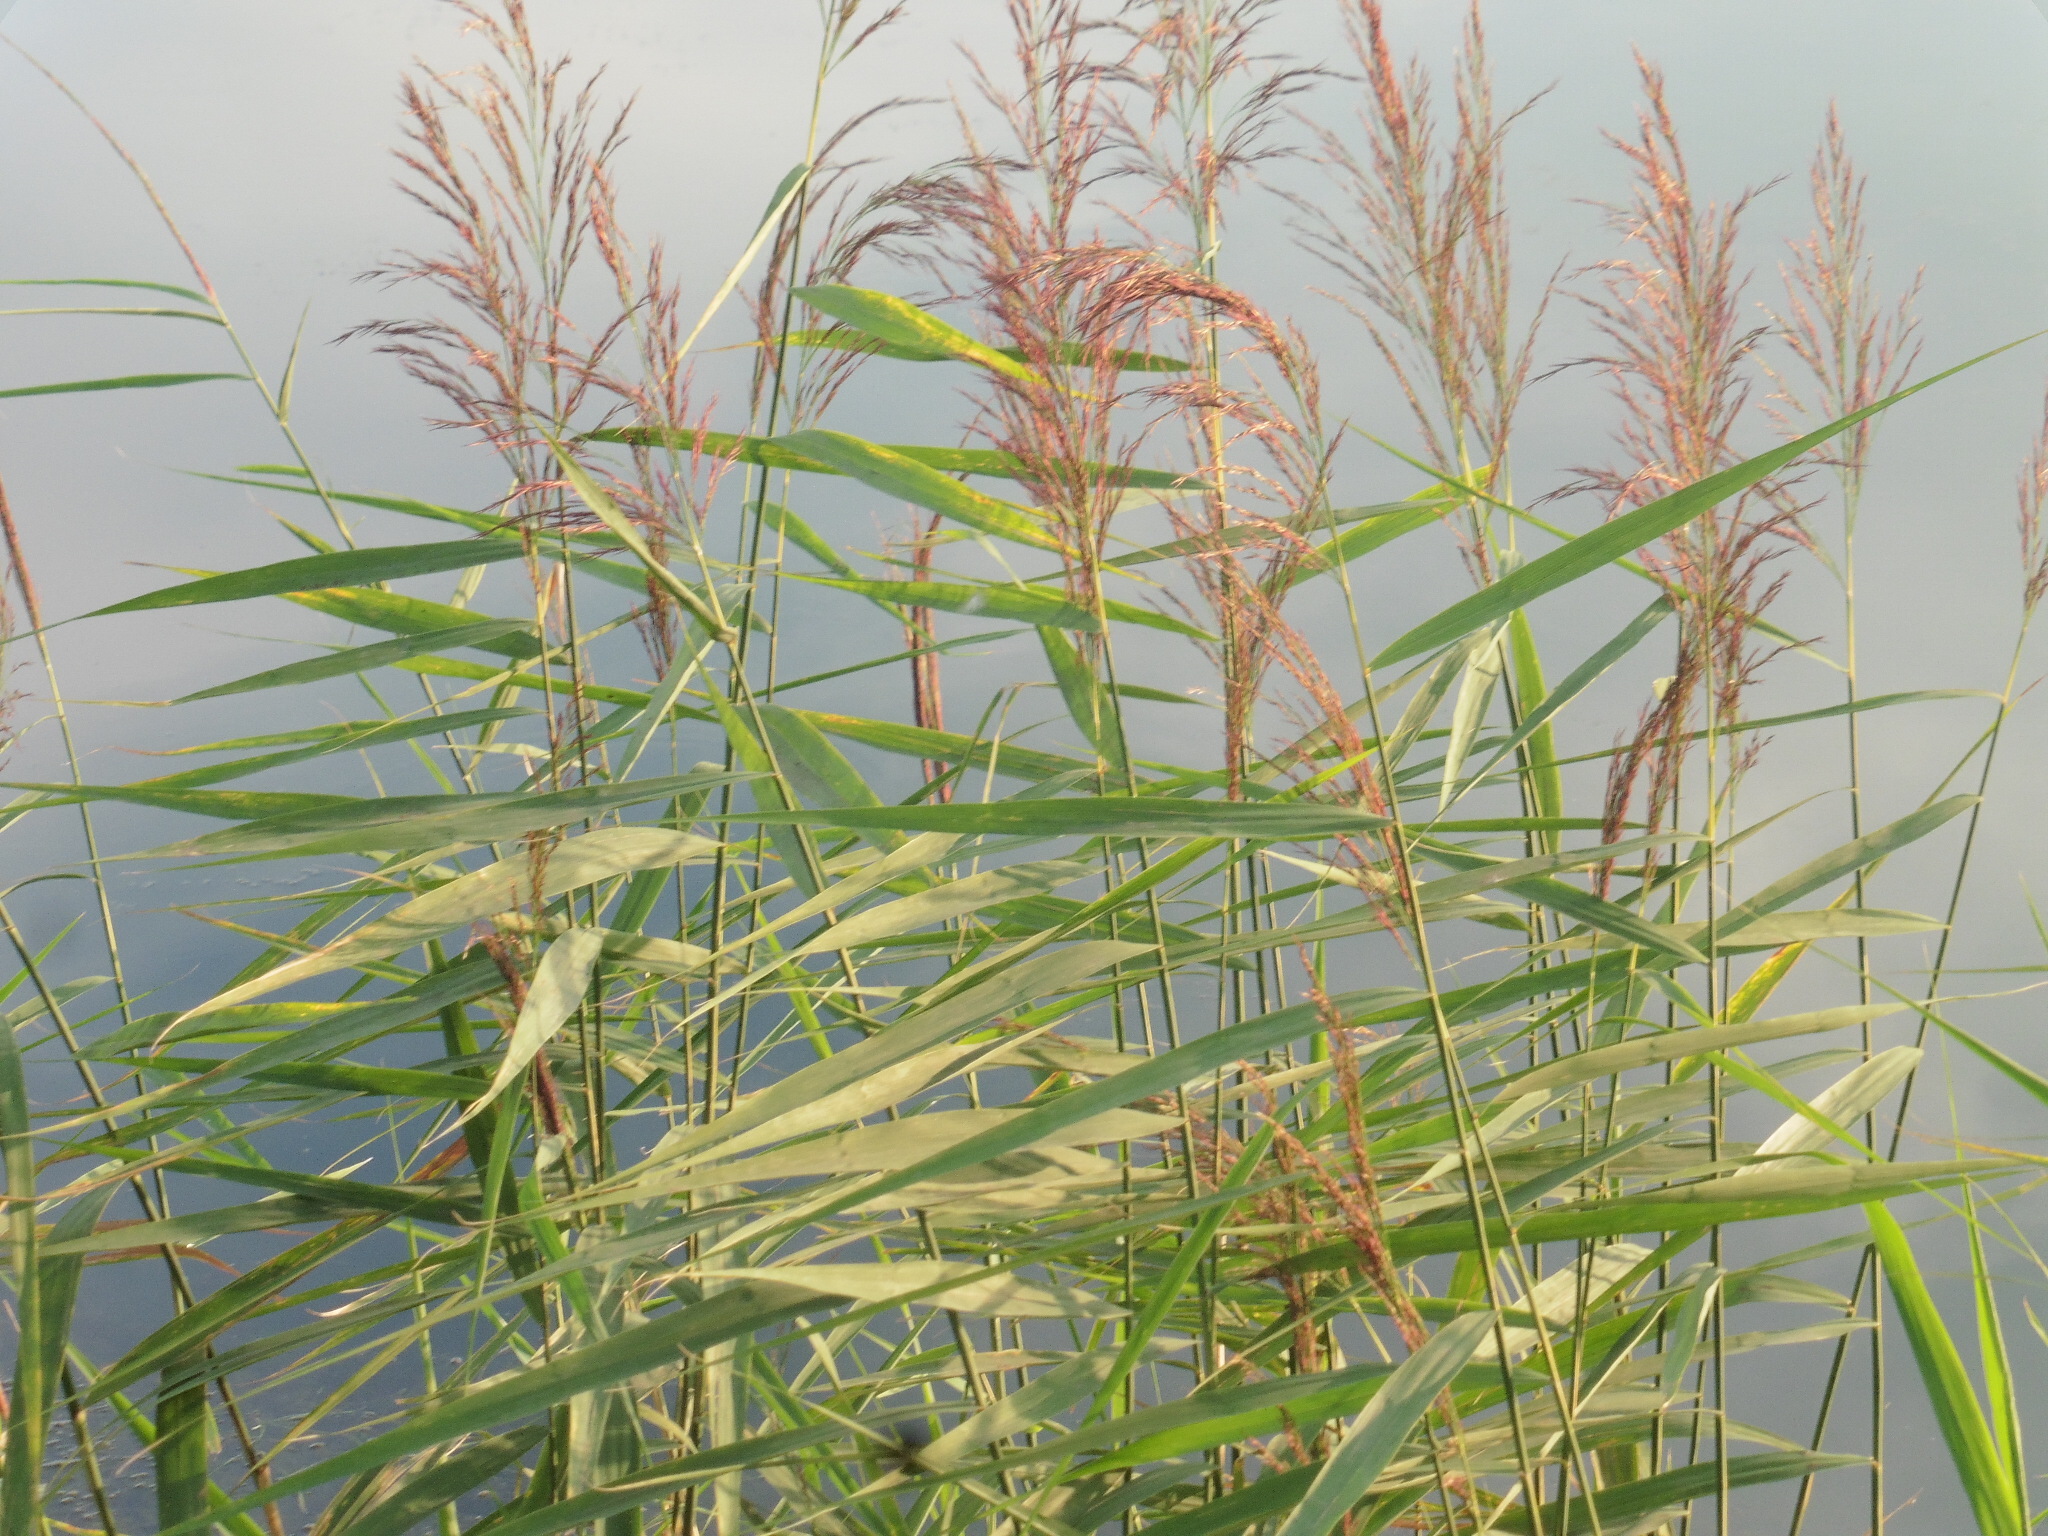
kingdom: Plantae
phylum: Tracheophyta
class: Liliopsida
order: Poales
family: Poaceae
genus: Phragmites
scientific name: Phragmites australis
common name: Common reed
